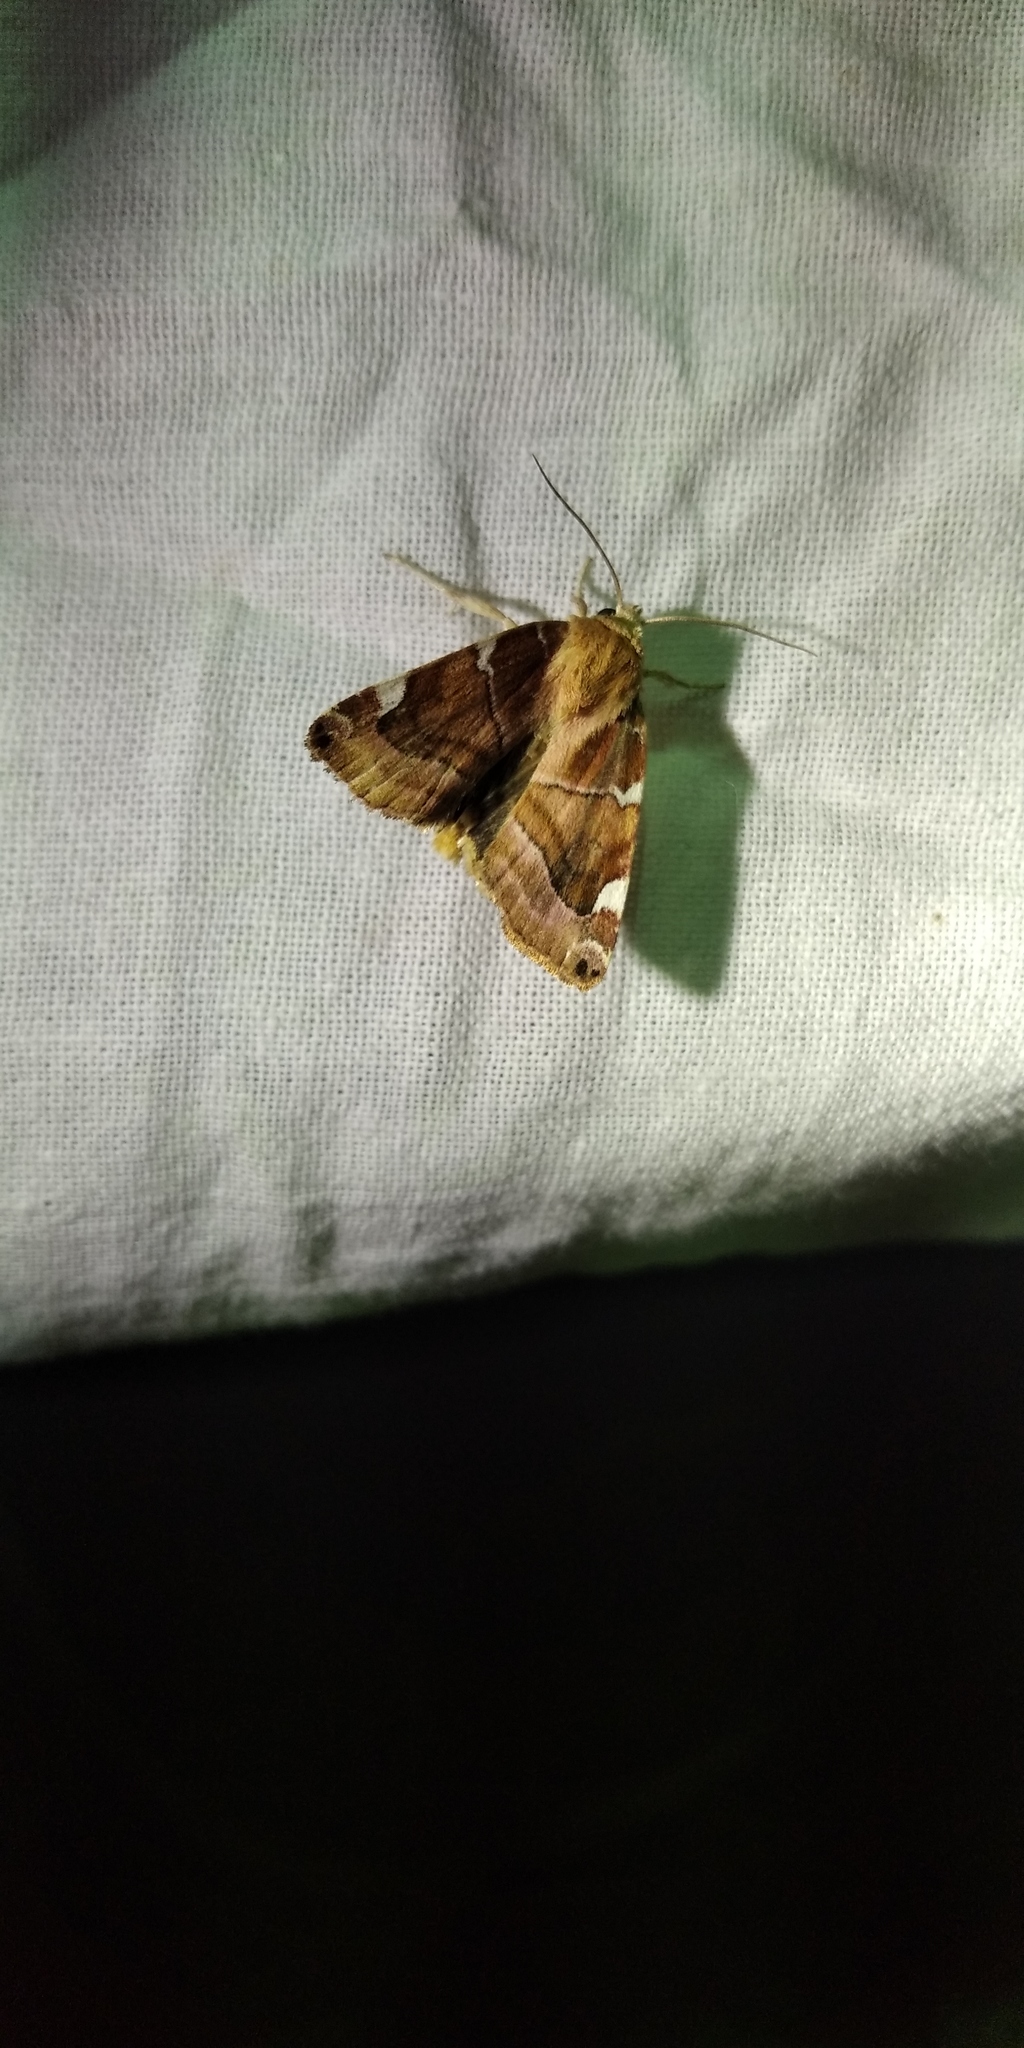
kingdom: Animalia
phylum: Arthropoda
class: Insecta
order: Lepidoptera
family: Noctuidae
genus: Cosmia
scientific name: Cosmia diffinis
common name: White-spotted pinion
